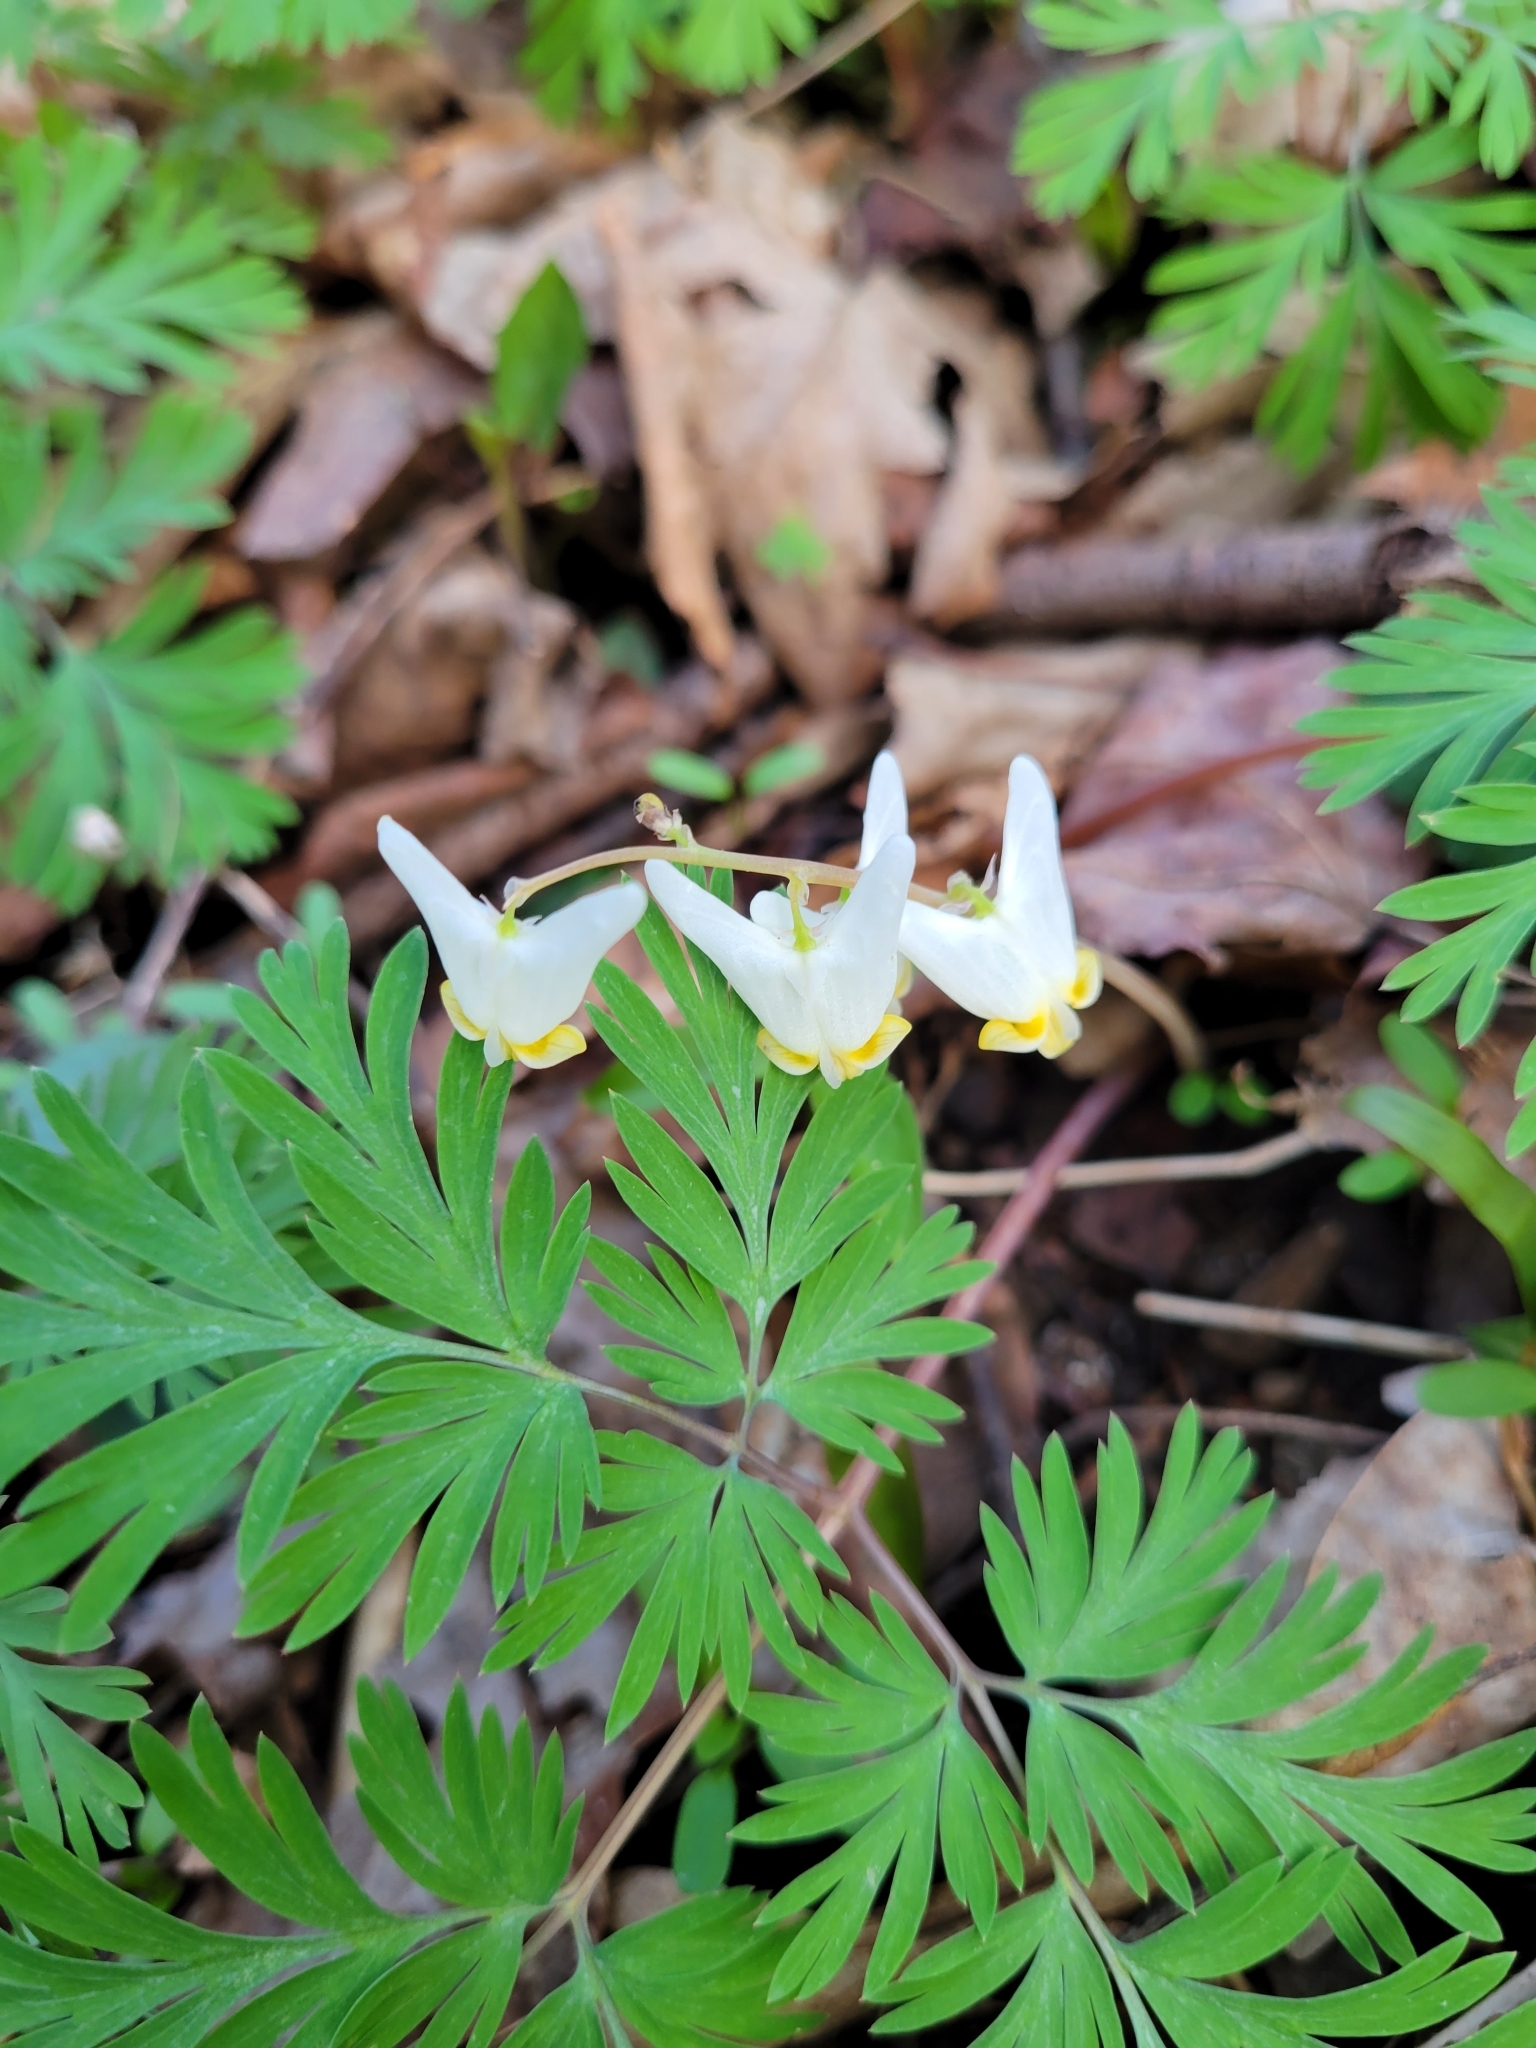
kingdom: Plantae
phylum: Tracheophyta
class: Magnoliopsida
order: Ranunculales
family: Papaveraceae
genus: Dicentra
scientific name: Dicentra cucullaria
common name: Dutchman's breeches
